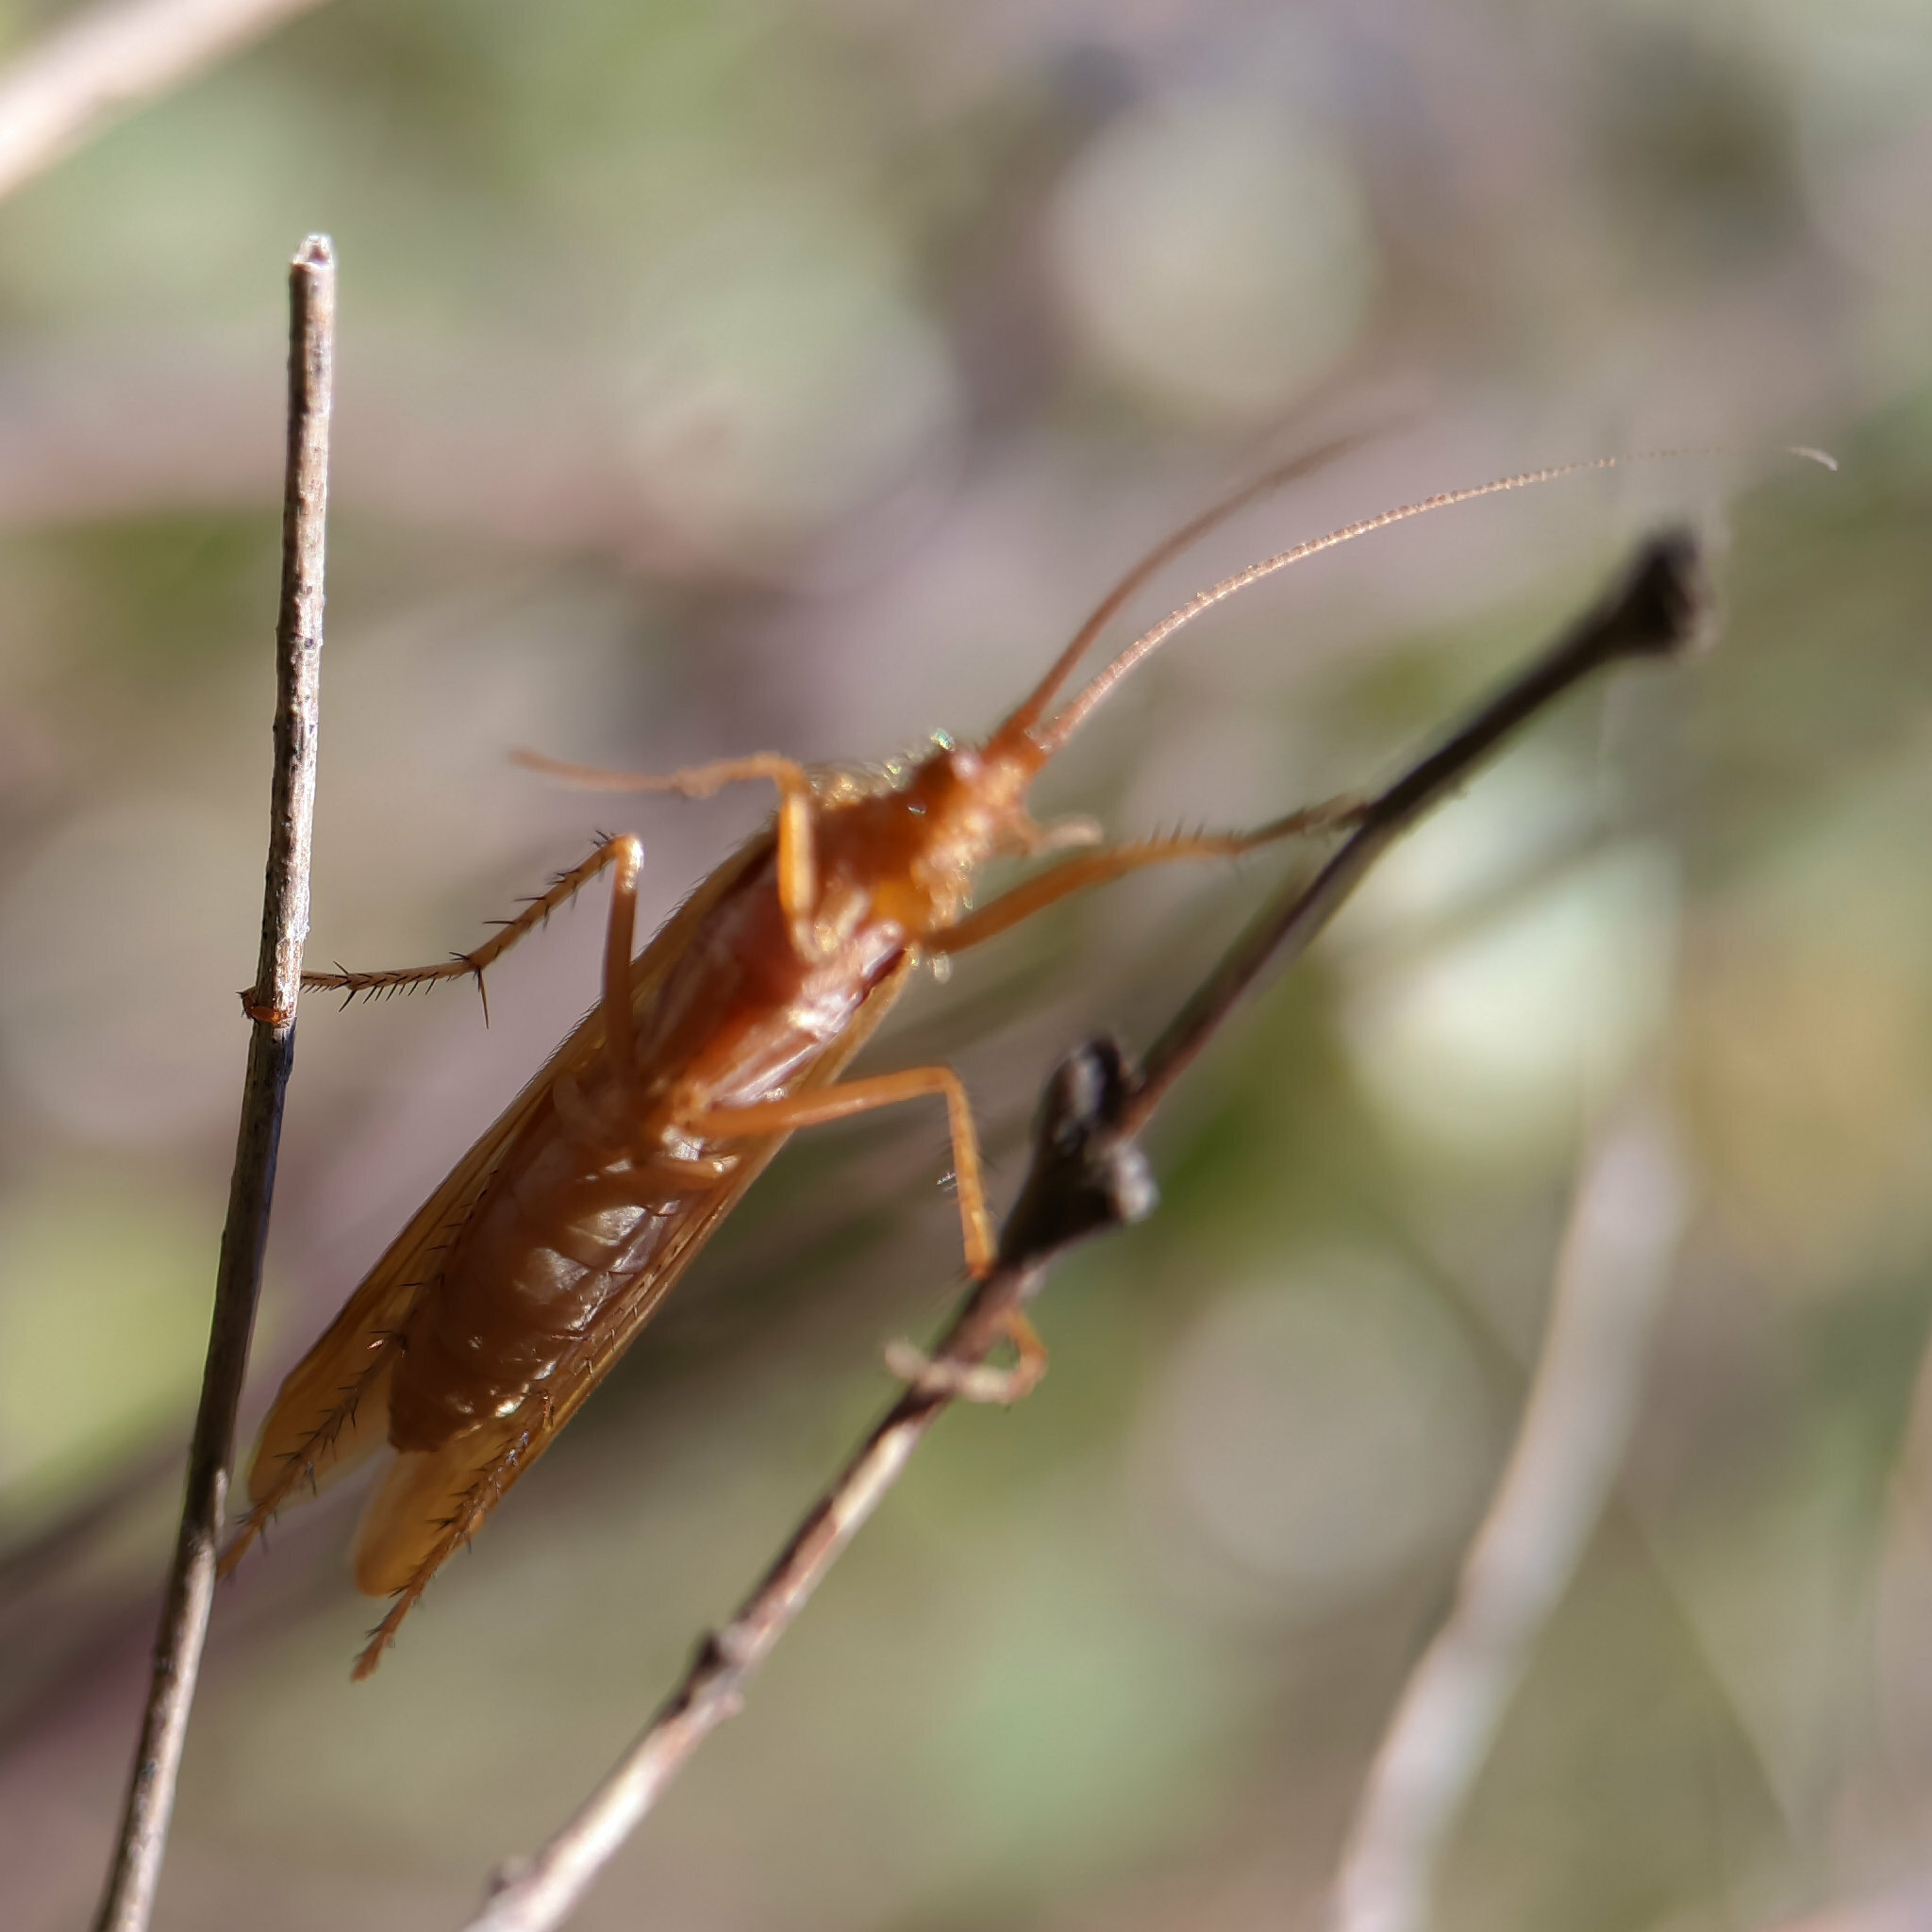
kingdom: Animalia
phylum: Arthropoda
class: Insecta
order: Trichoptera
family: Limnephilidae
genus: Limnephilus
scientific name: Limnephilus lunatus
